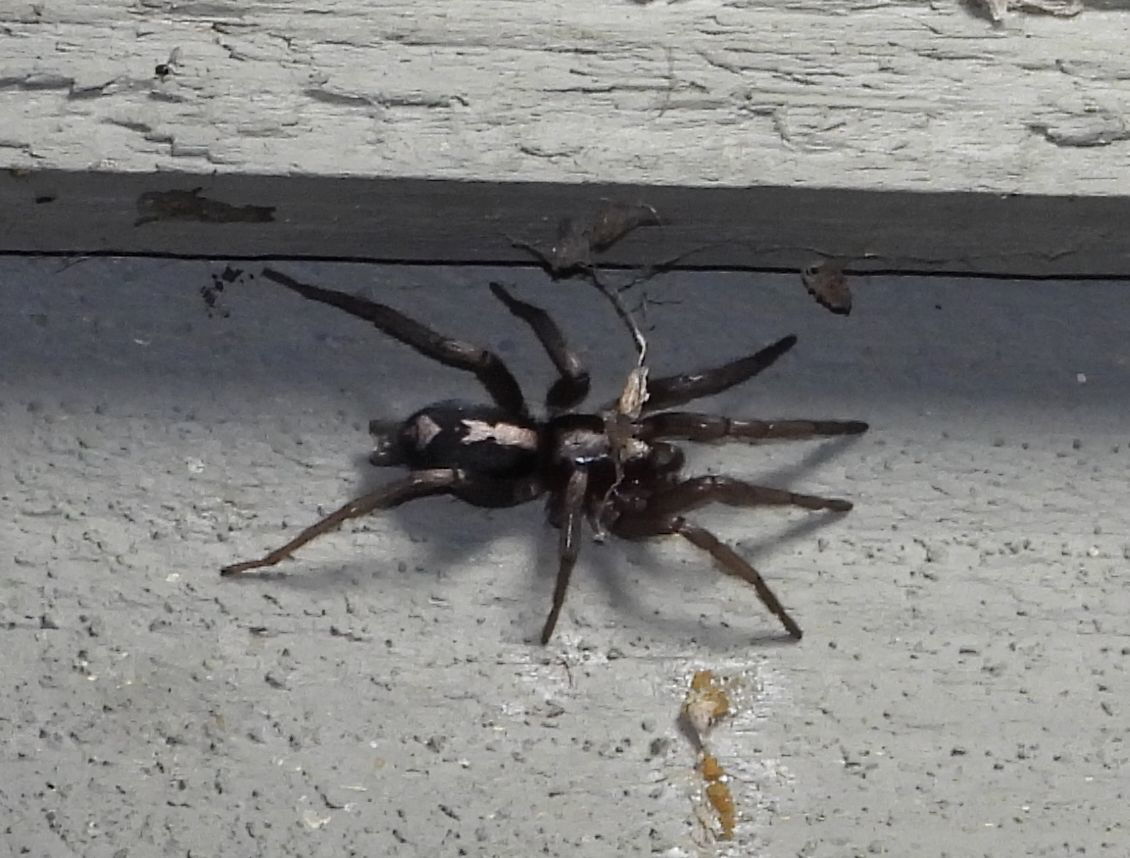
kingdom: Animalia
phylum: Arthropoda
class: Arachnida
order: Araneae
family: Gnaphosidae
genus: Herpyllus
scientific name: Herpyllus ecclesiasticus
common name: Eastern parson spider
